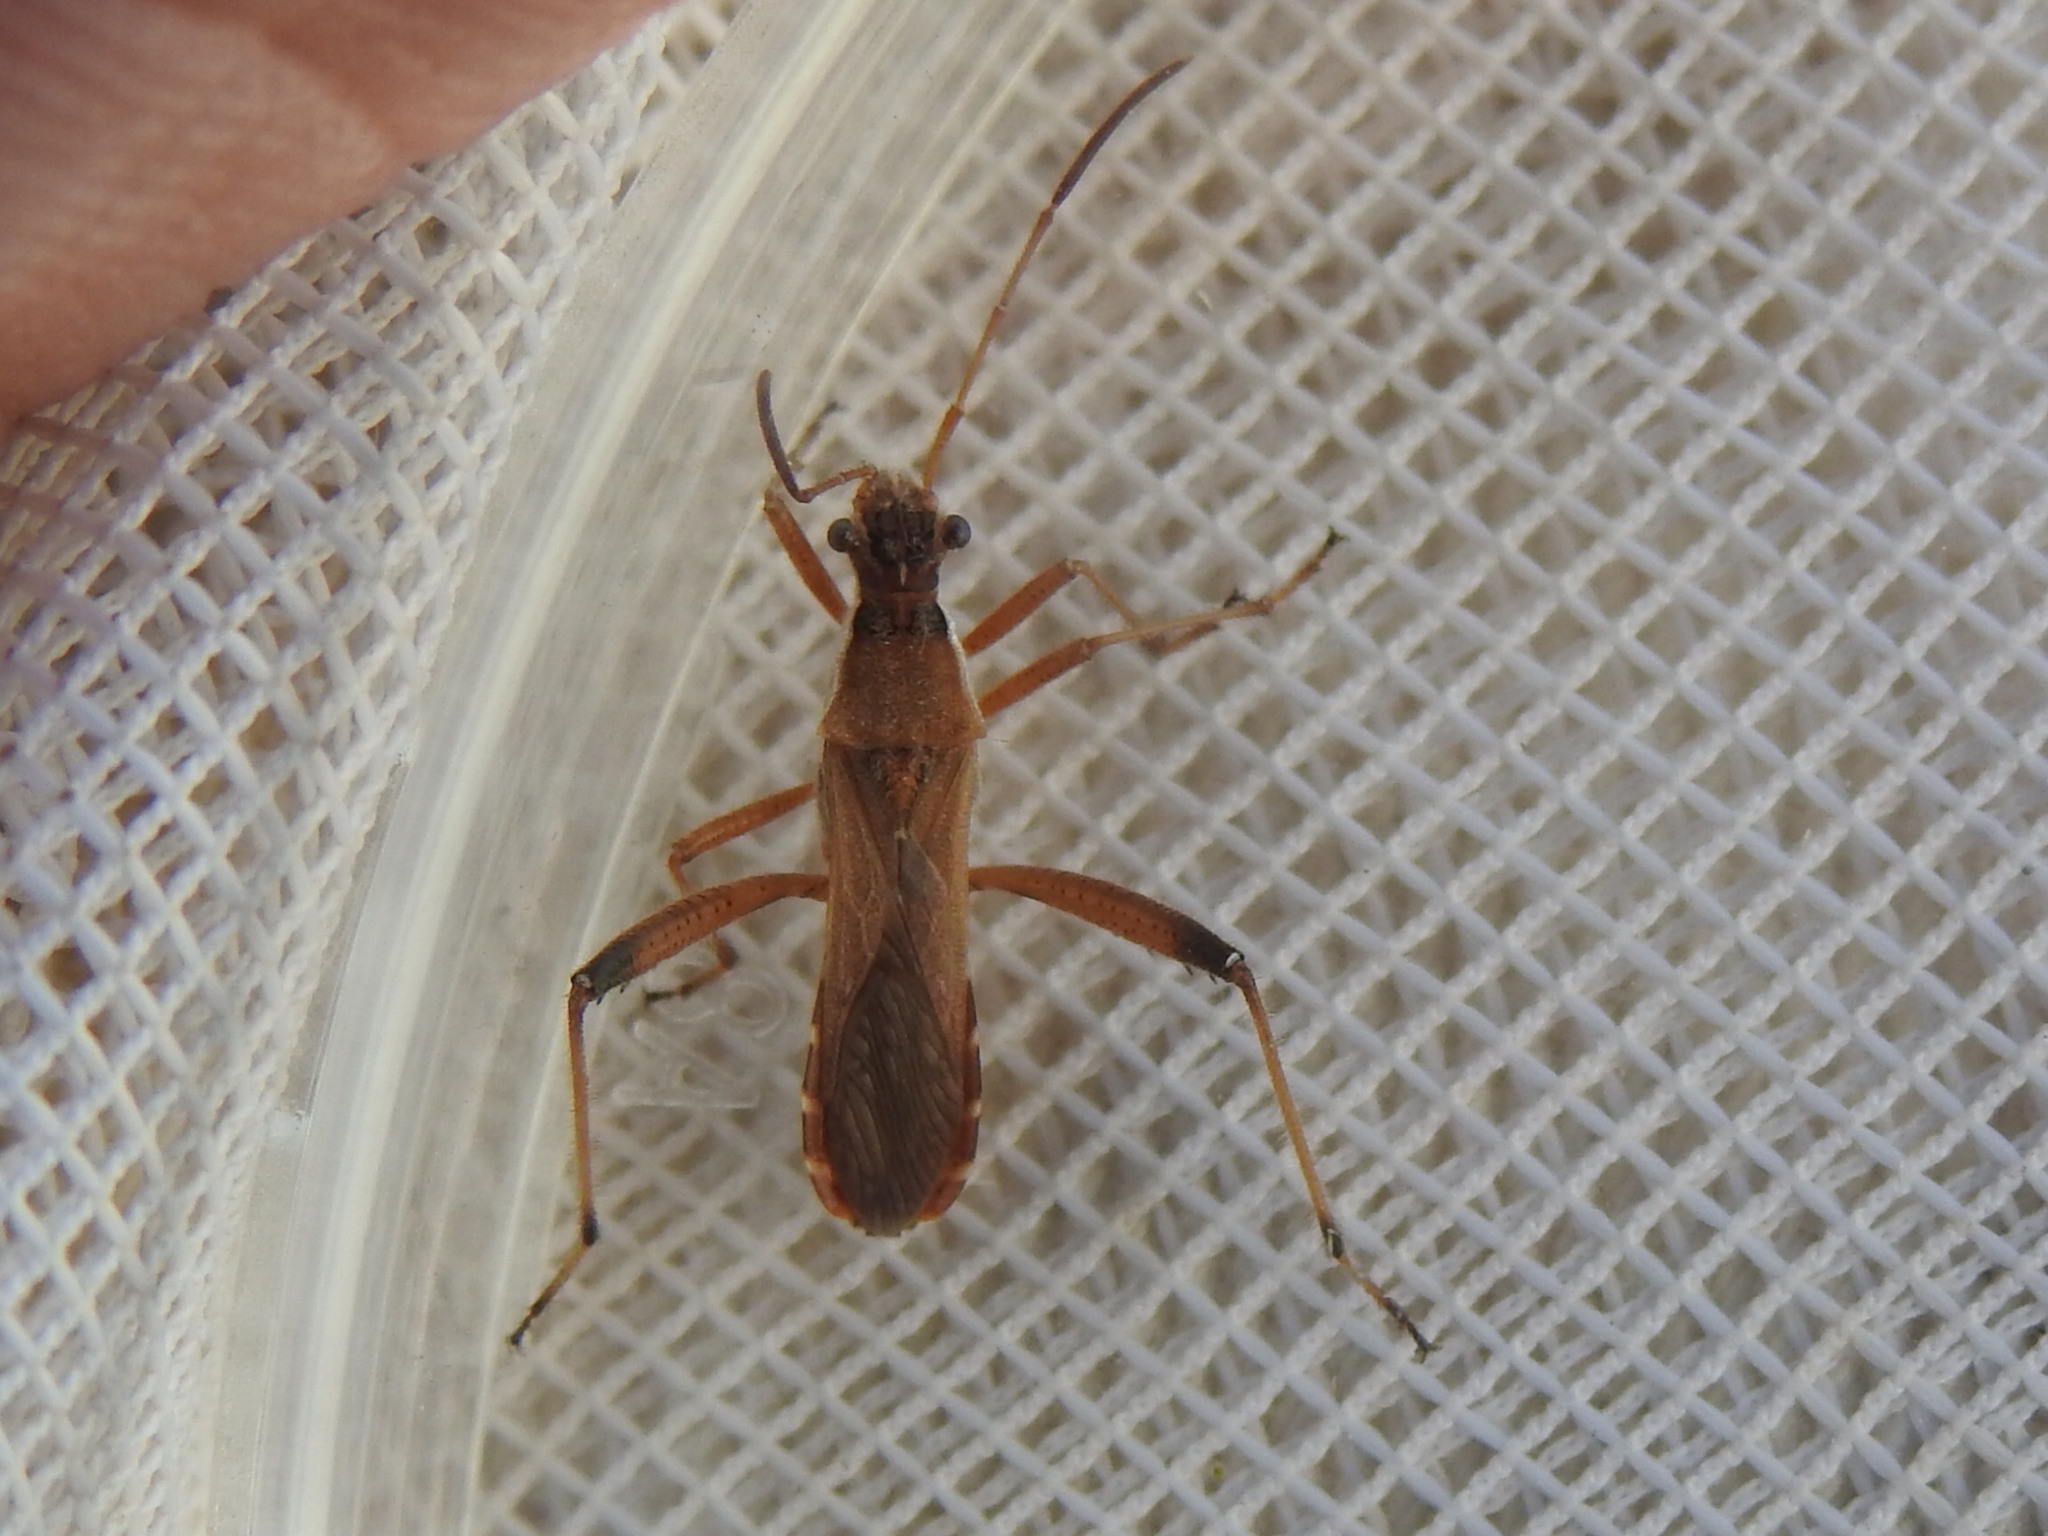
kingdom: Animalia
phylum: Arthropoda
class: Insecta
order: Hemiptera
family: Alydidae
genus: Alydus
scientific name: Alydus pilosulus
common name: Broad-headed bug
